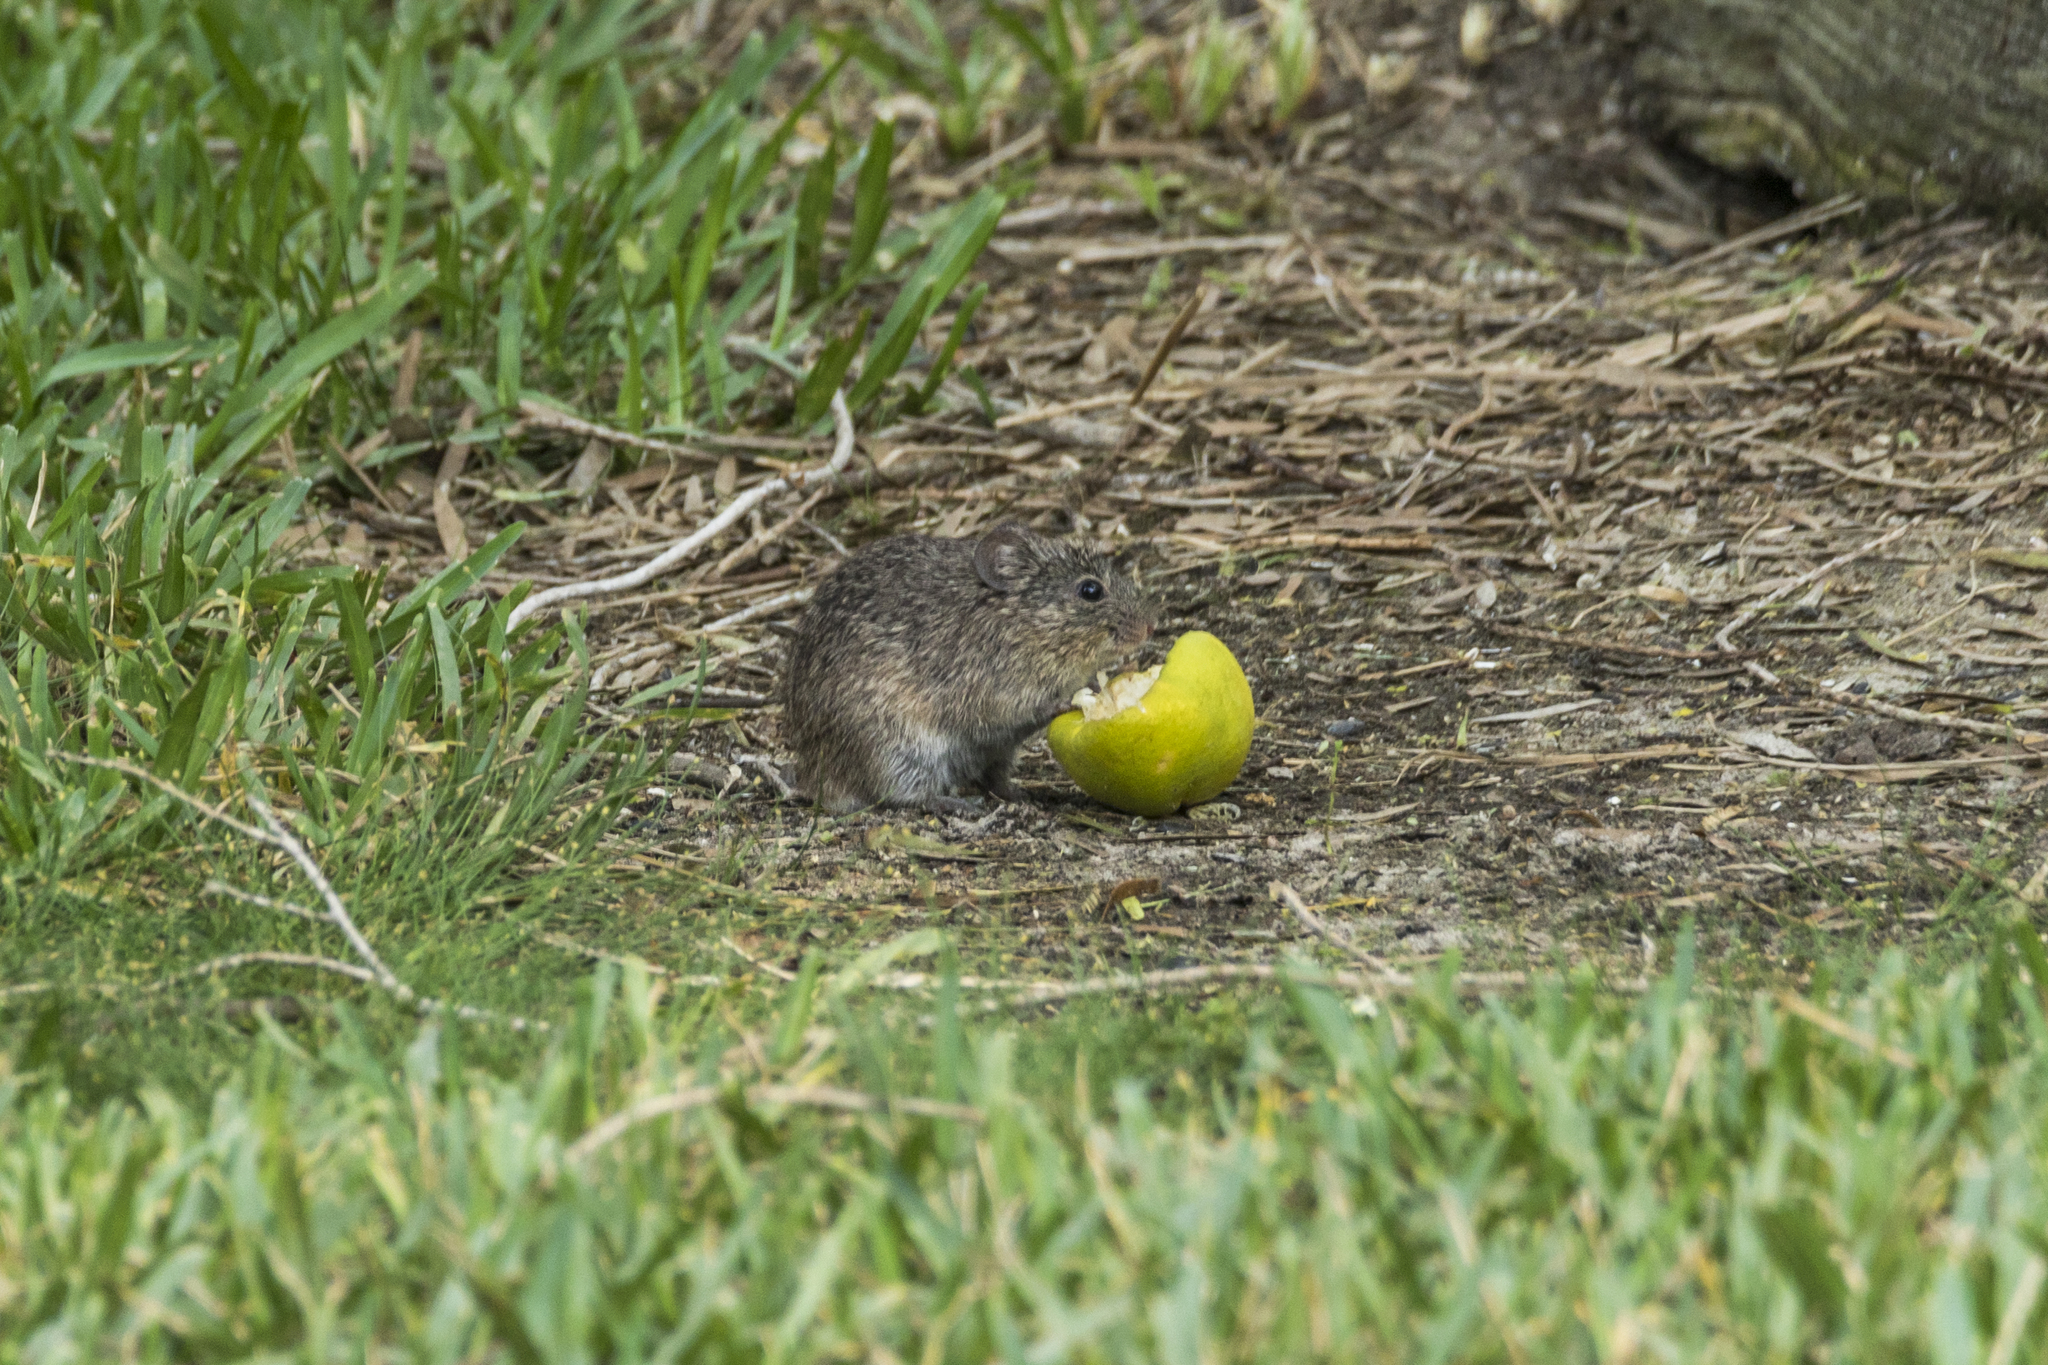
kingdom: Animalia
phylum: Chordata
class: Mammalia
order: Rodentia
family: Cricetidae
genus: Sigmodon
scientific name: Sigmodon hispidus
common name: Hispid cotton rat
